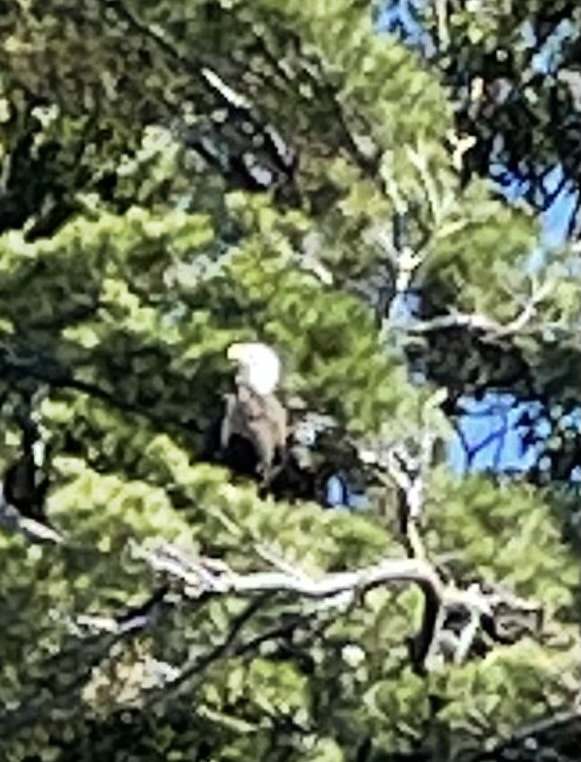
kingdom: Animalia
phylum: Chordata
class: Aves
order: Accipitriformes
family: Accipitridae
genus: Haliaeetus
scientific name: Haliaeetus leucocephalus
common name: Bald eagle
